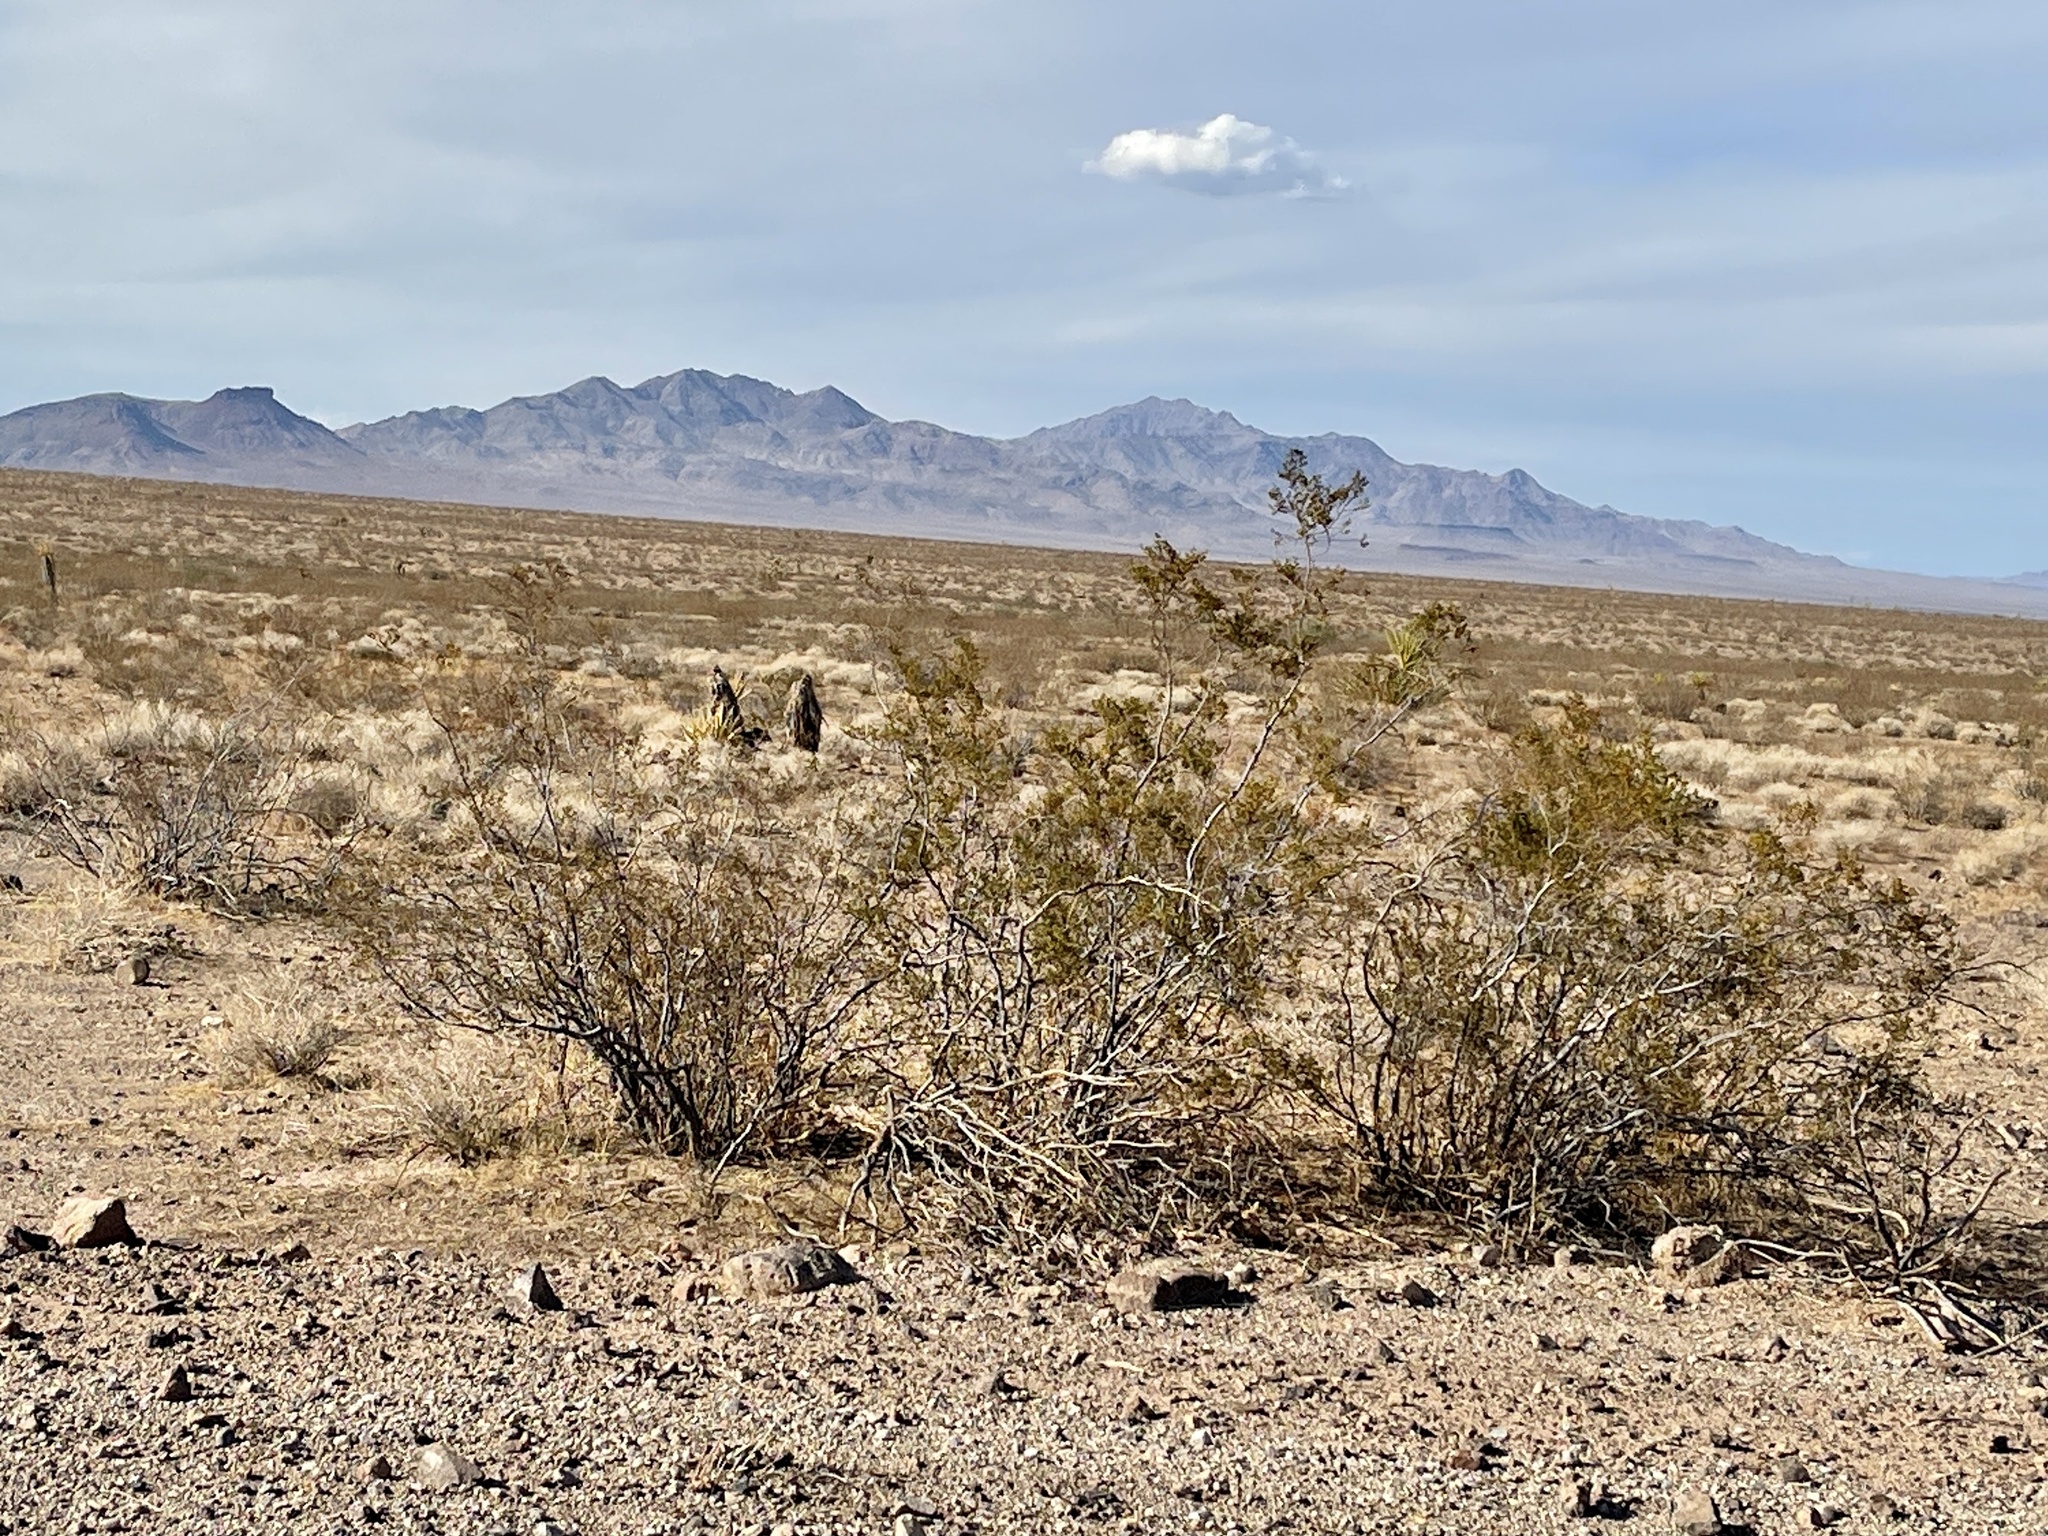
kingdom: Plantae
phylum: Tracheophyta
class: Magnoliopsida
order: Zygophyllales
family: Zygophyllaceae
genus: Larrea
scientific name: Larrea tridentata
